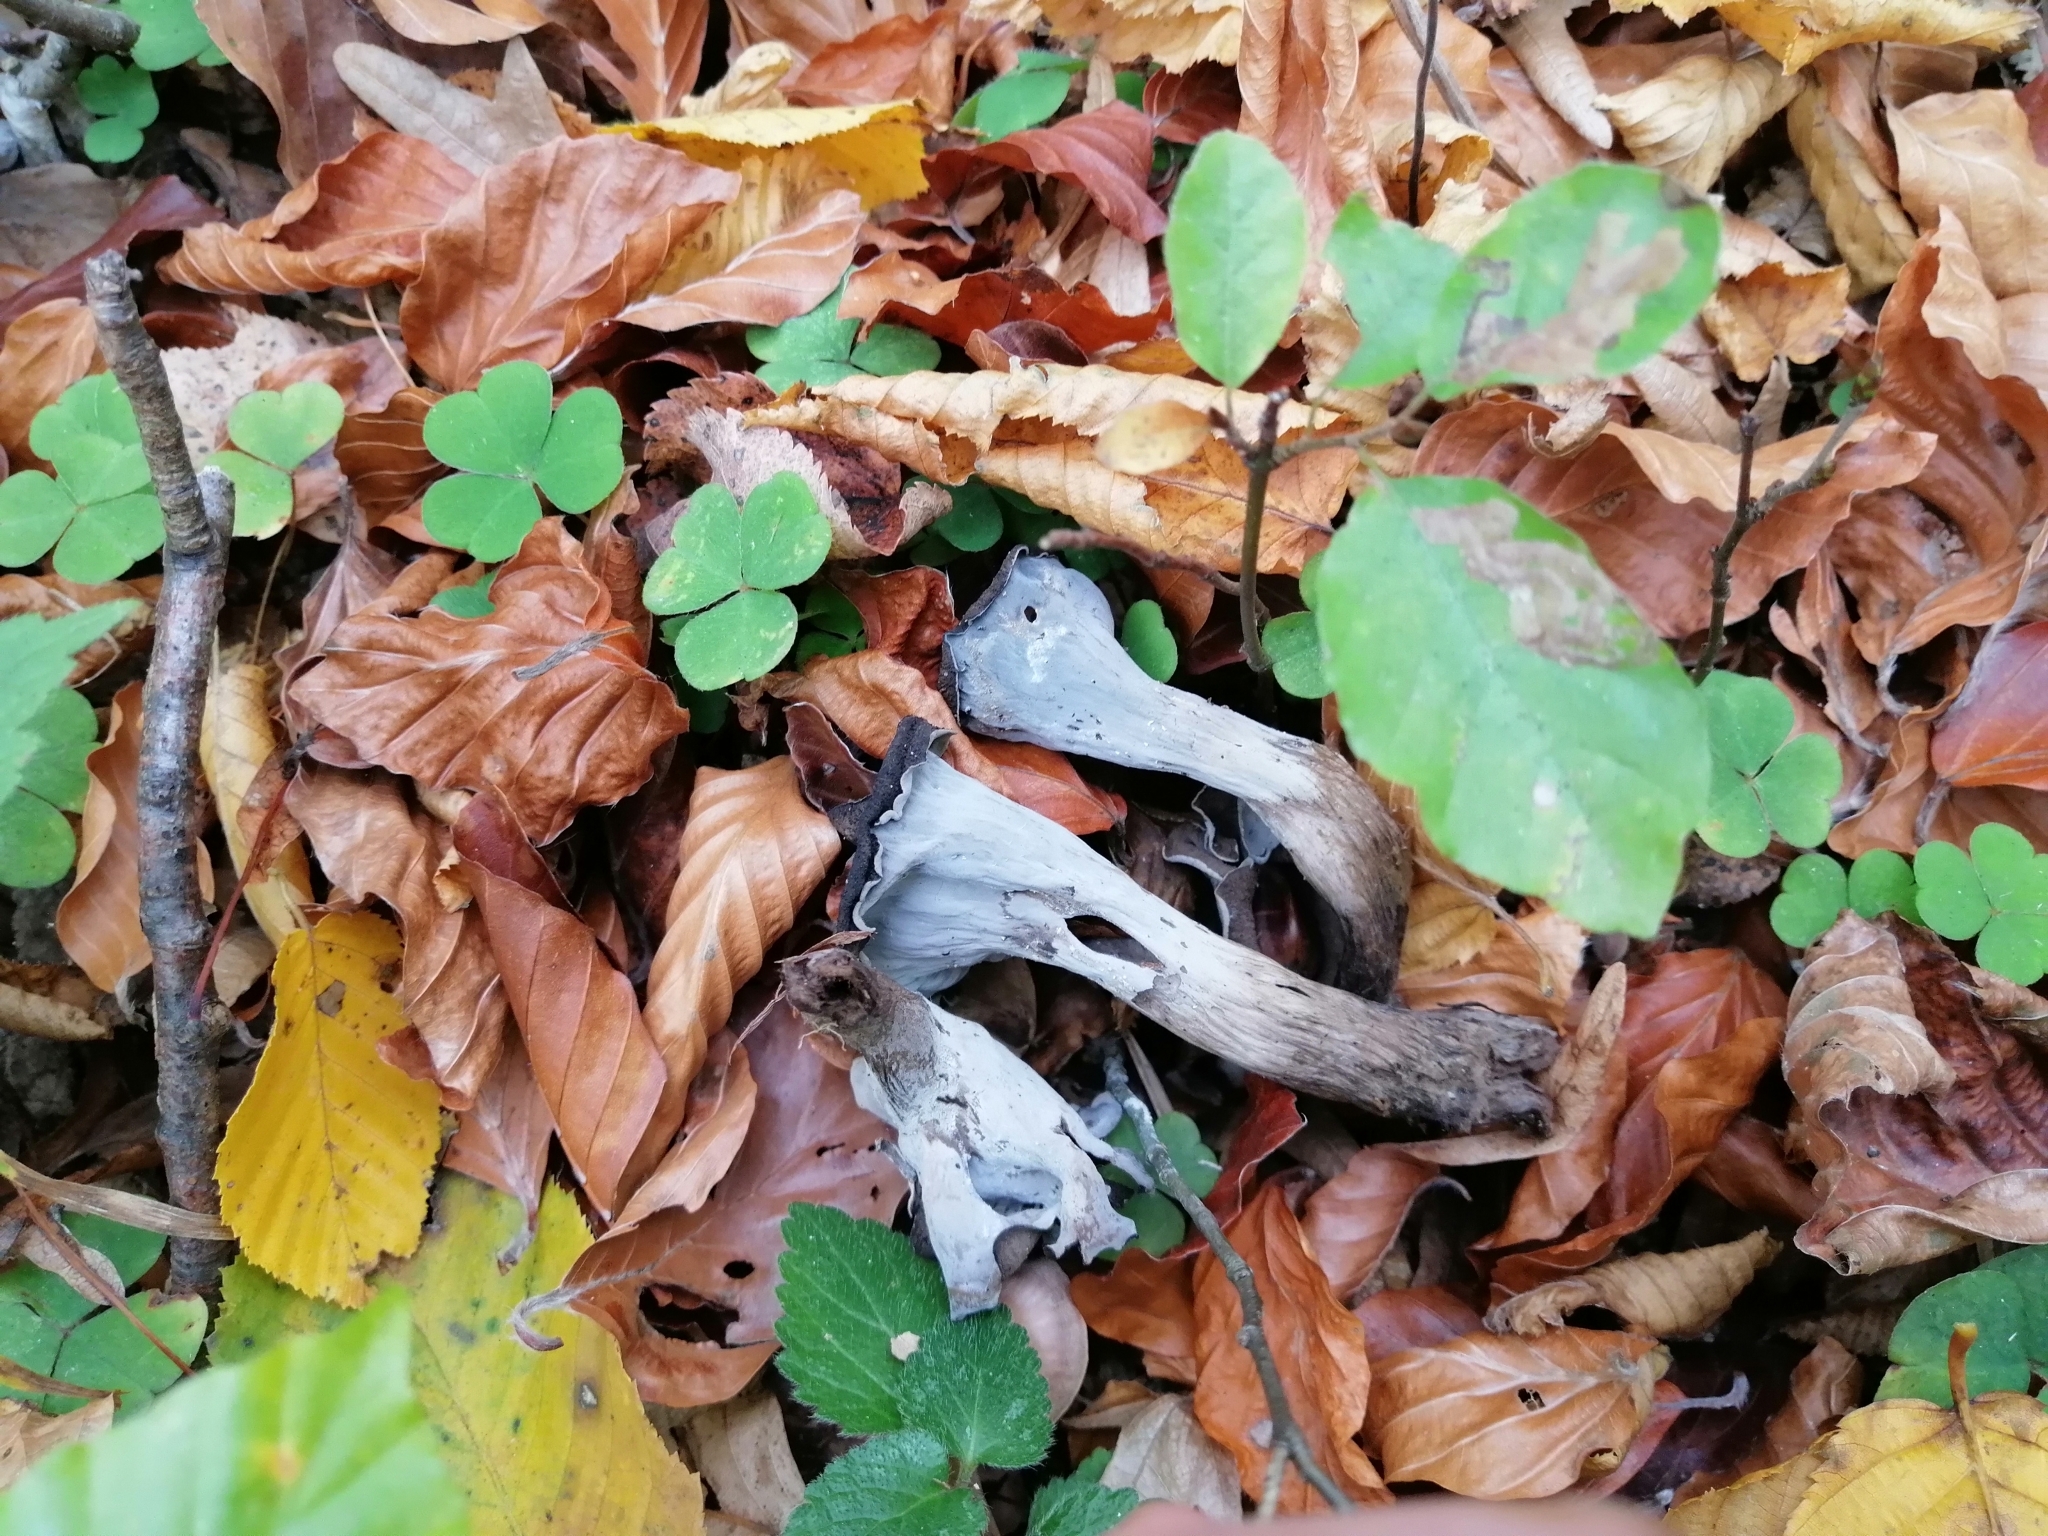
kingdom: Fungi
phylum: Basidiomycota
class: Agaricomycetes
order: Cantharellales
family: Hydnaceae
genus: Craterellus
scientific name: Craterellus cornucopioides
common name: Horn of plenty
